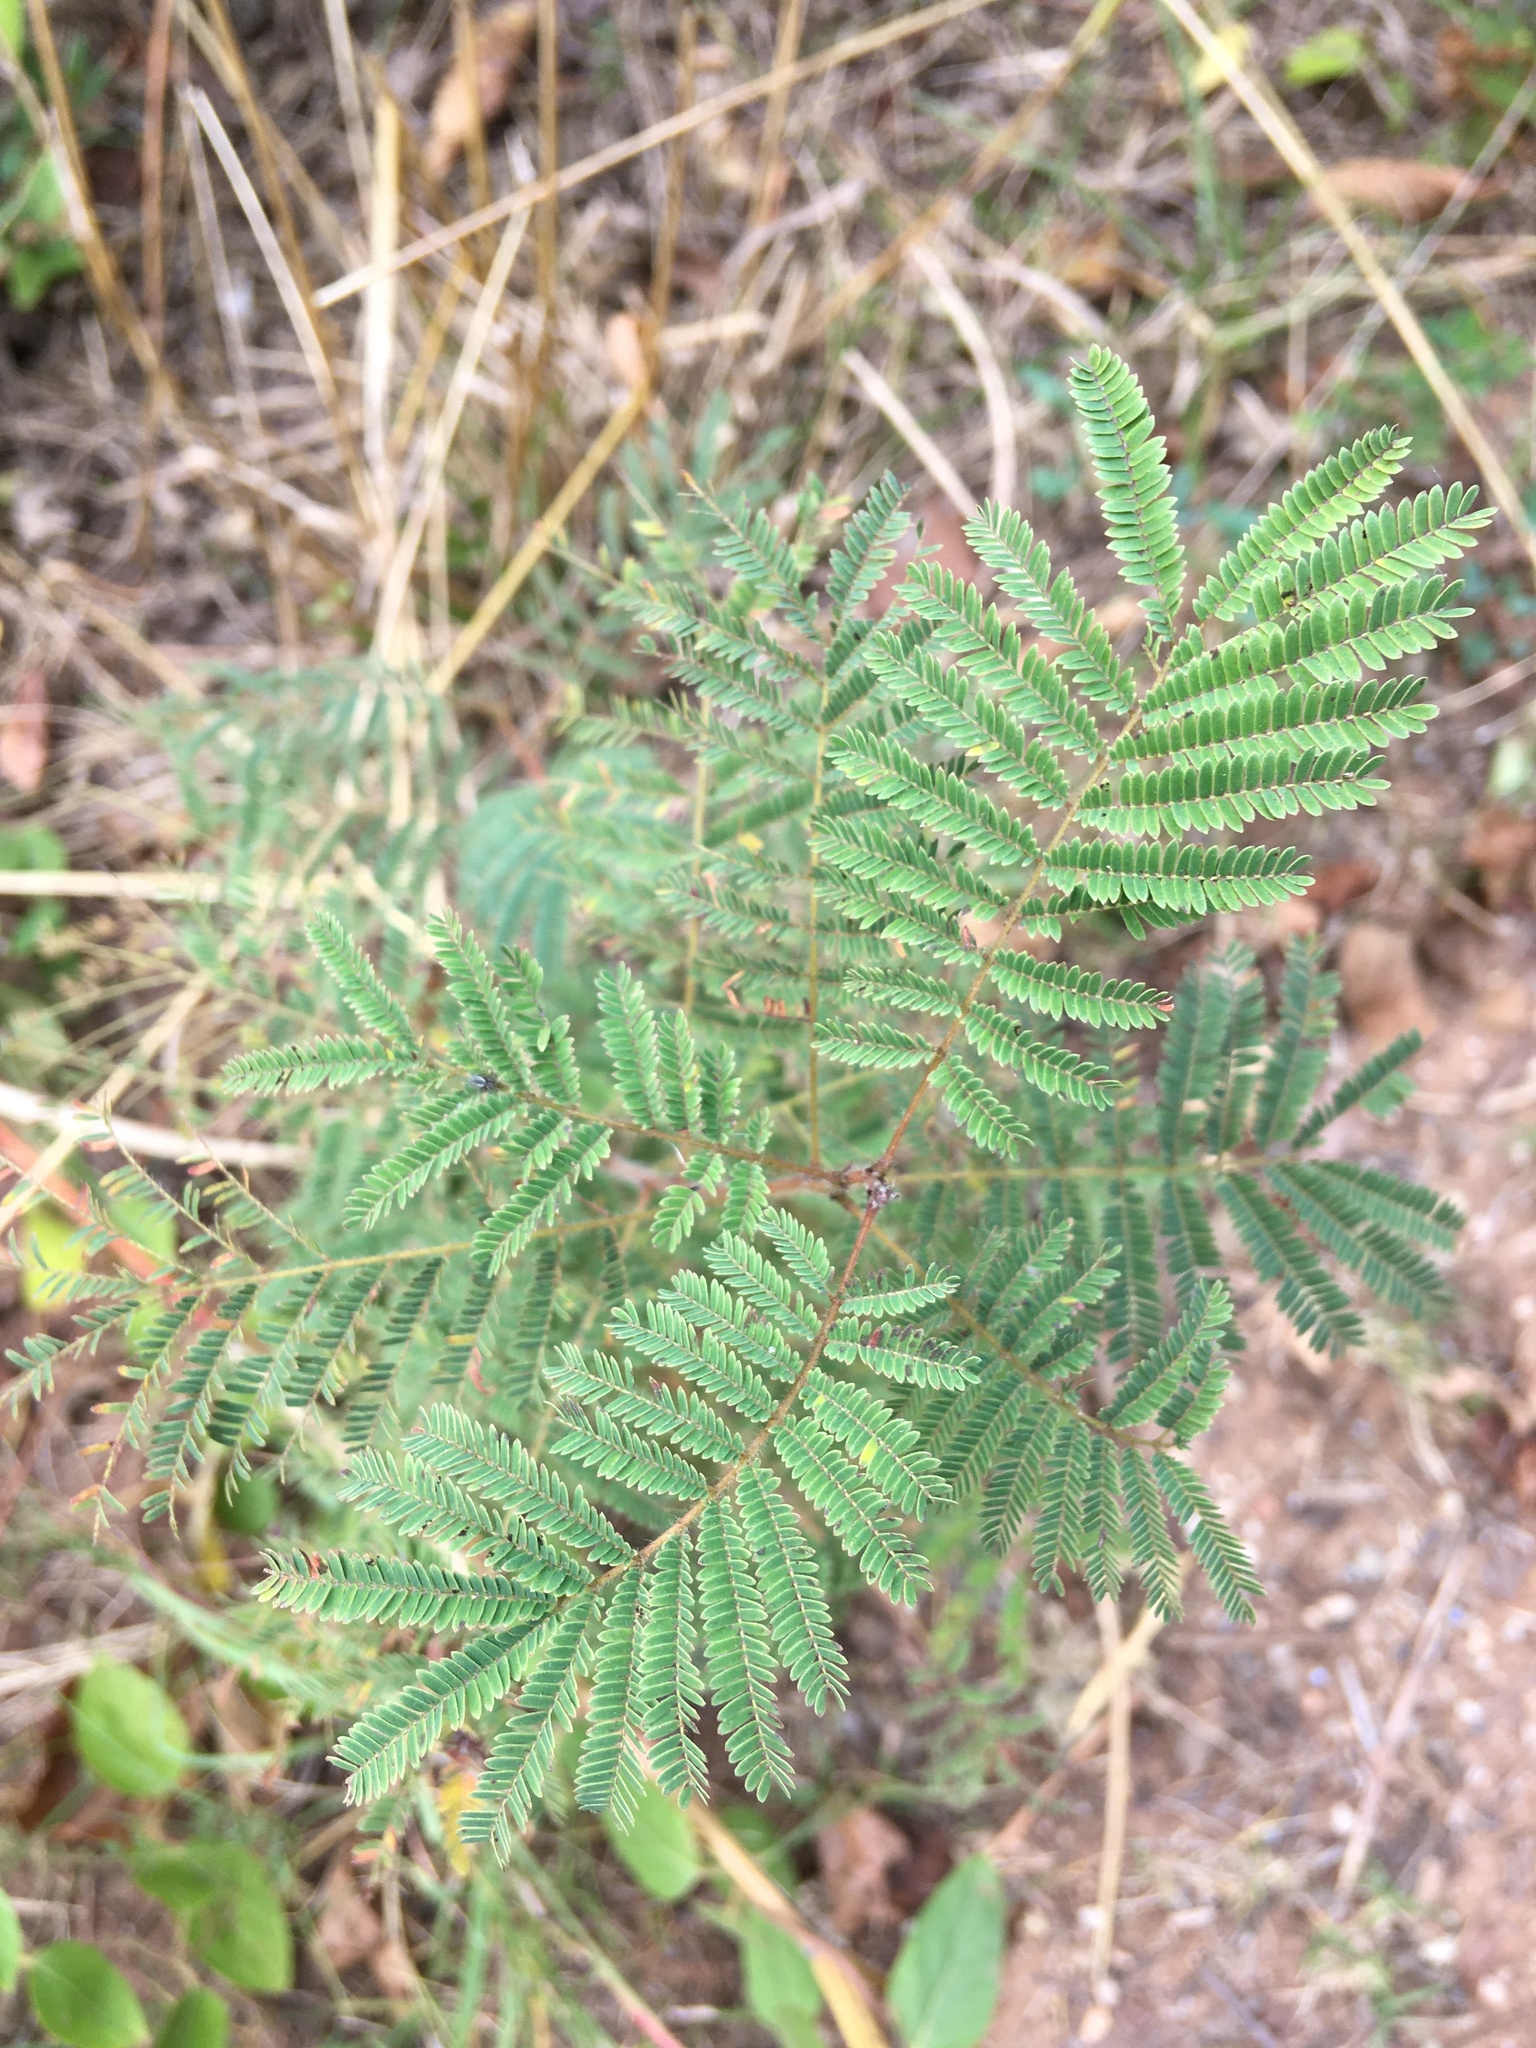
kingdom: Plantae
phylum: Tracheophyta
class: Magnoliopsida
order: Fabales
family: Fabaceae
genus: Desmanthus
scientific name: Desmanthus illinoensis
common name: Illinois bundle-flower
